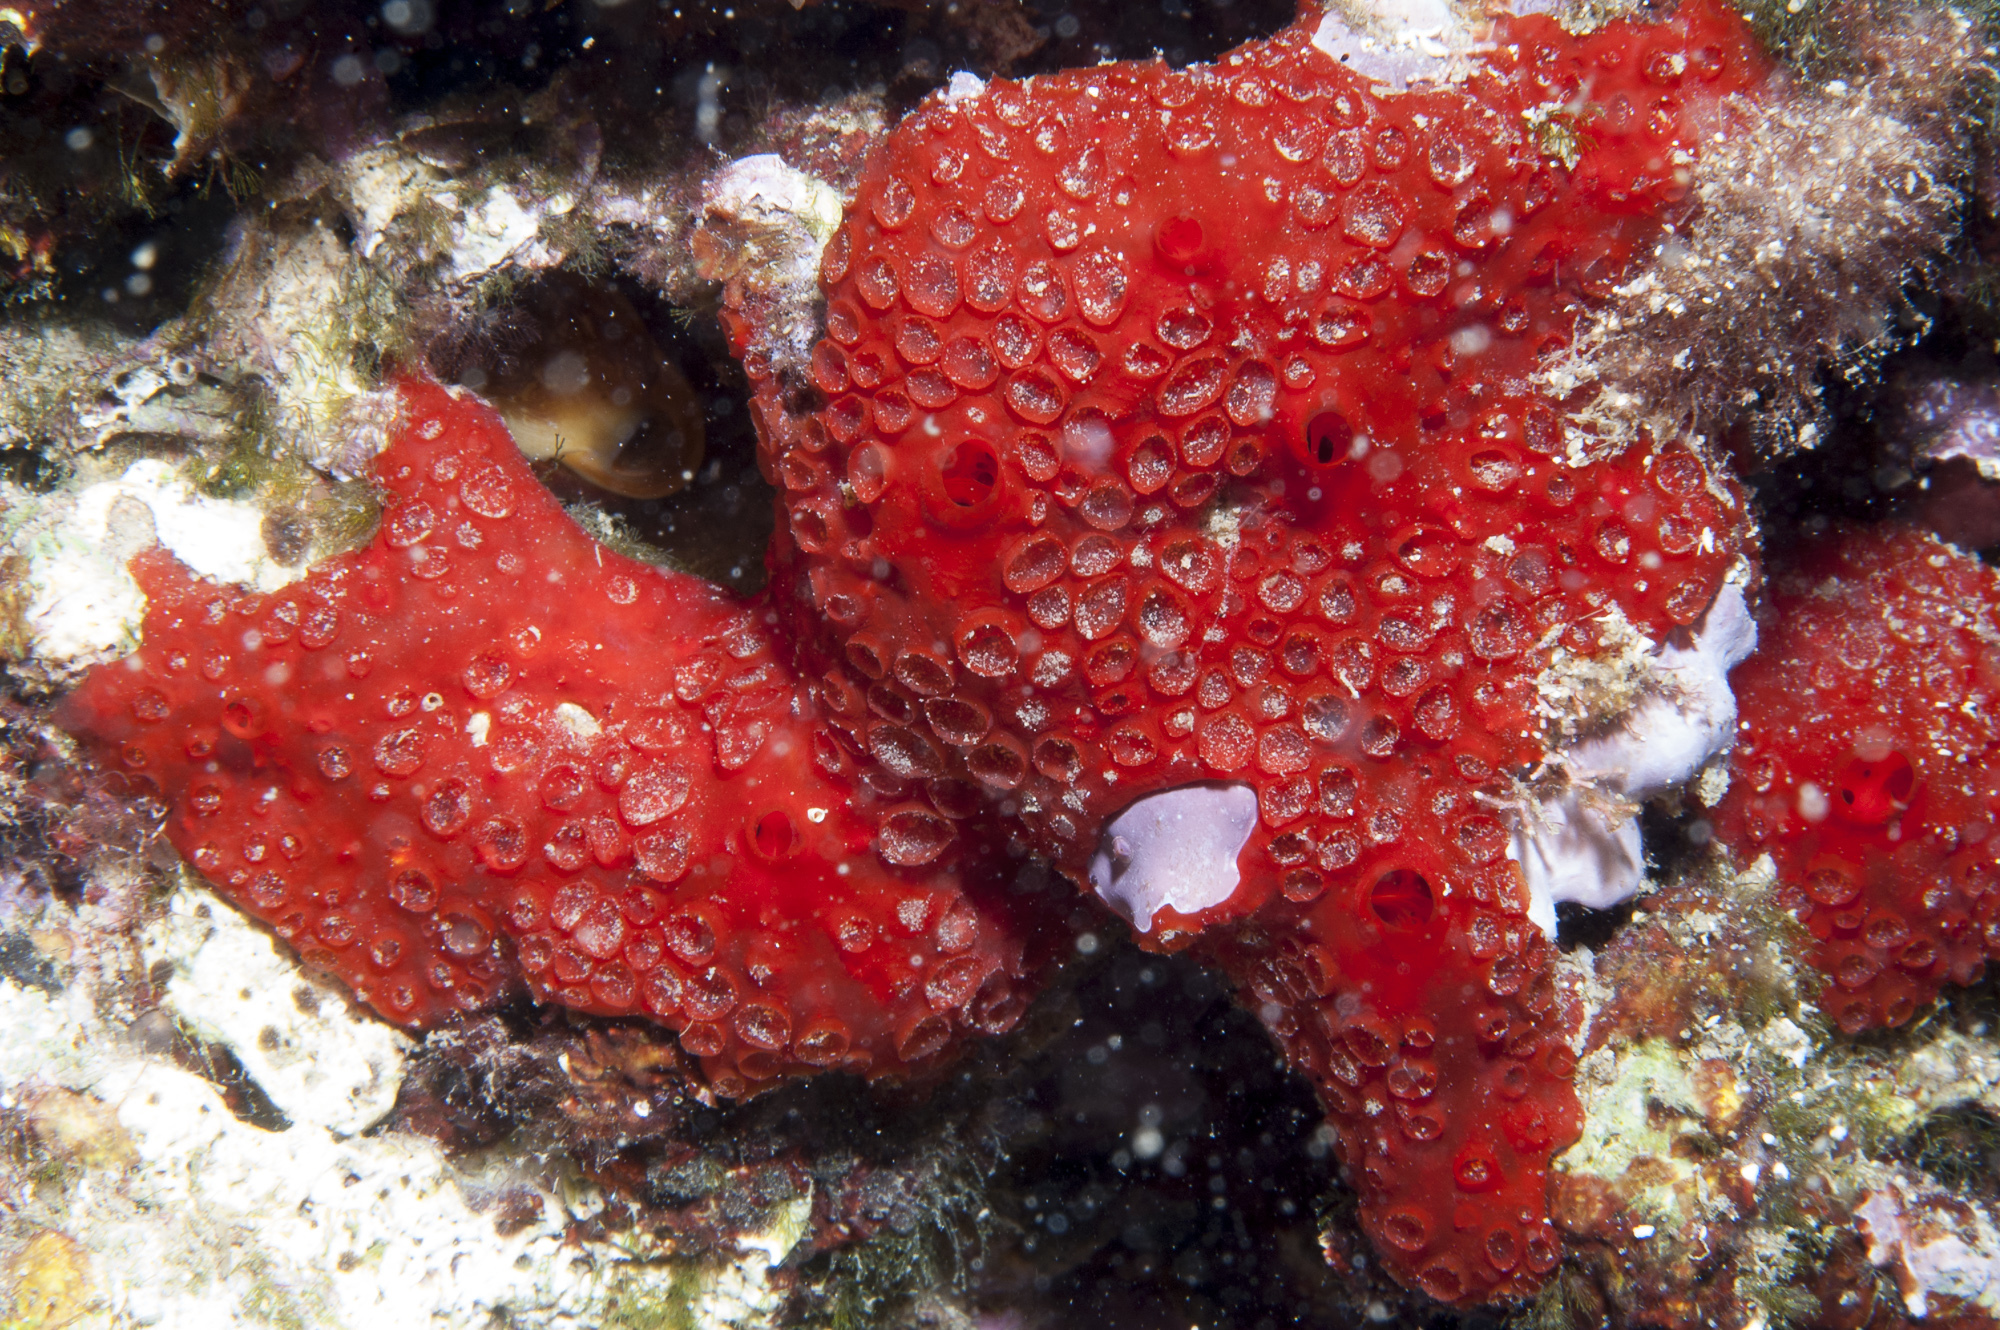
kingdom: Animalia
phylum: Porifera
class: Demospongiae
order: Poecilosclerida
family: Hymedesmiidae
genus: Phorbas
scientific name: Phorbas topsenti
